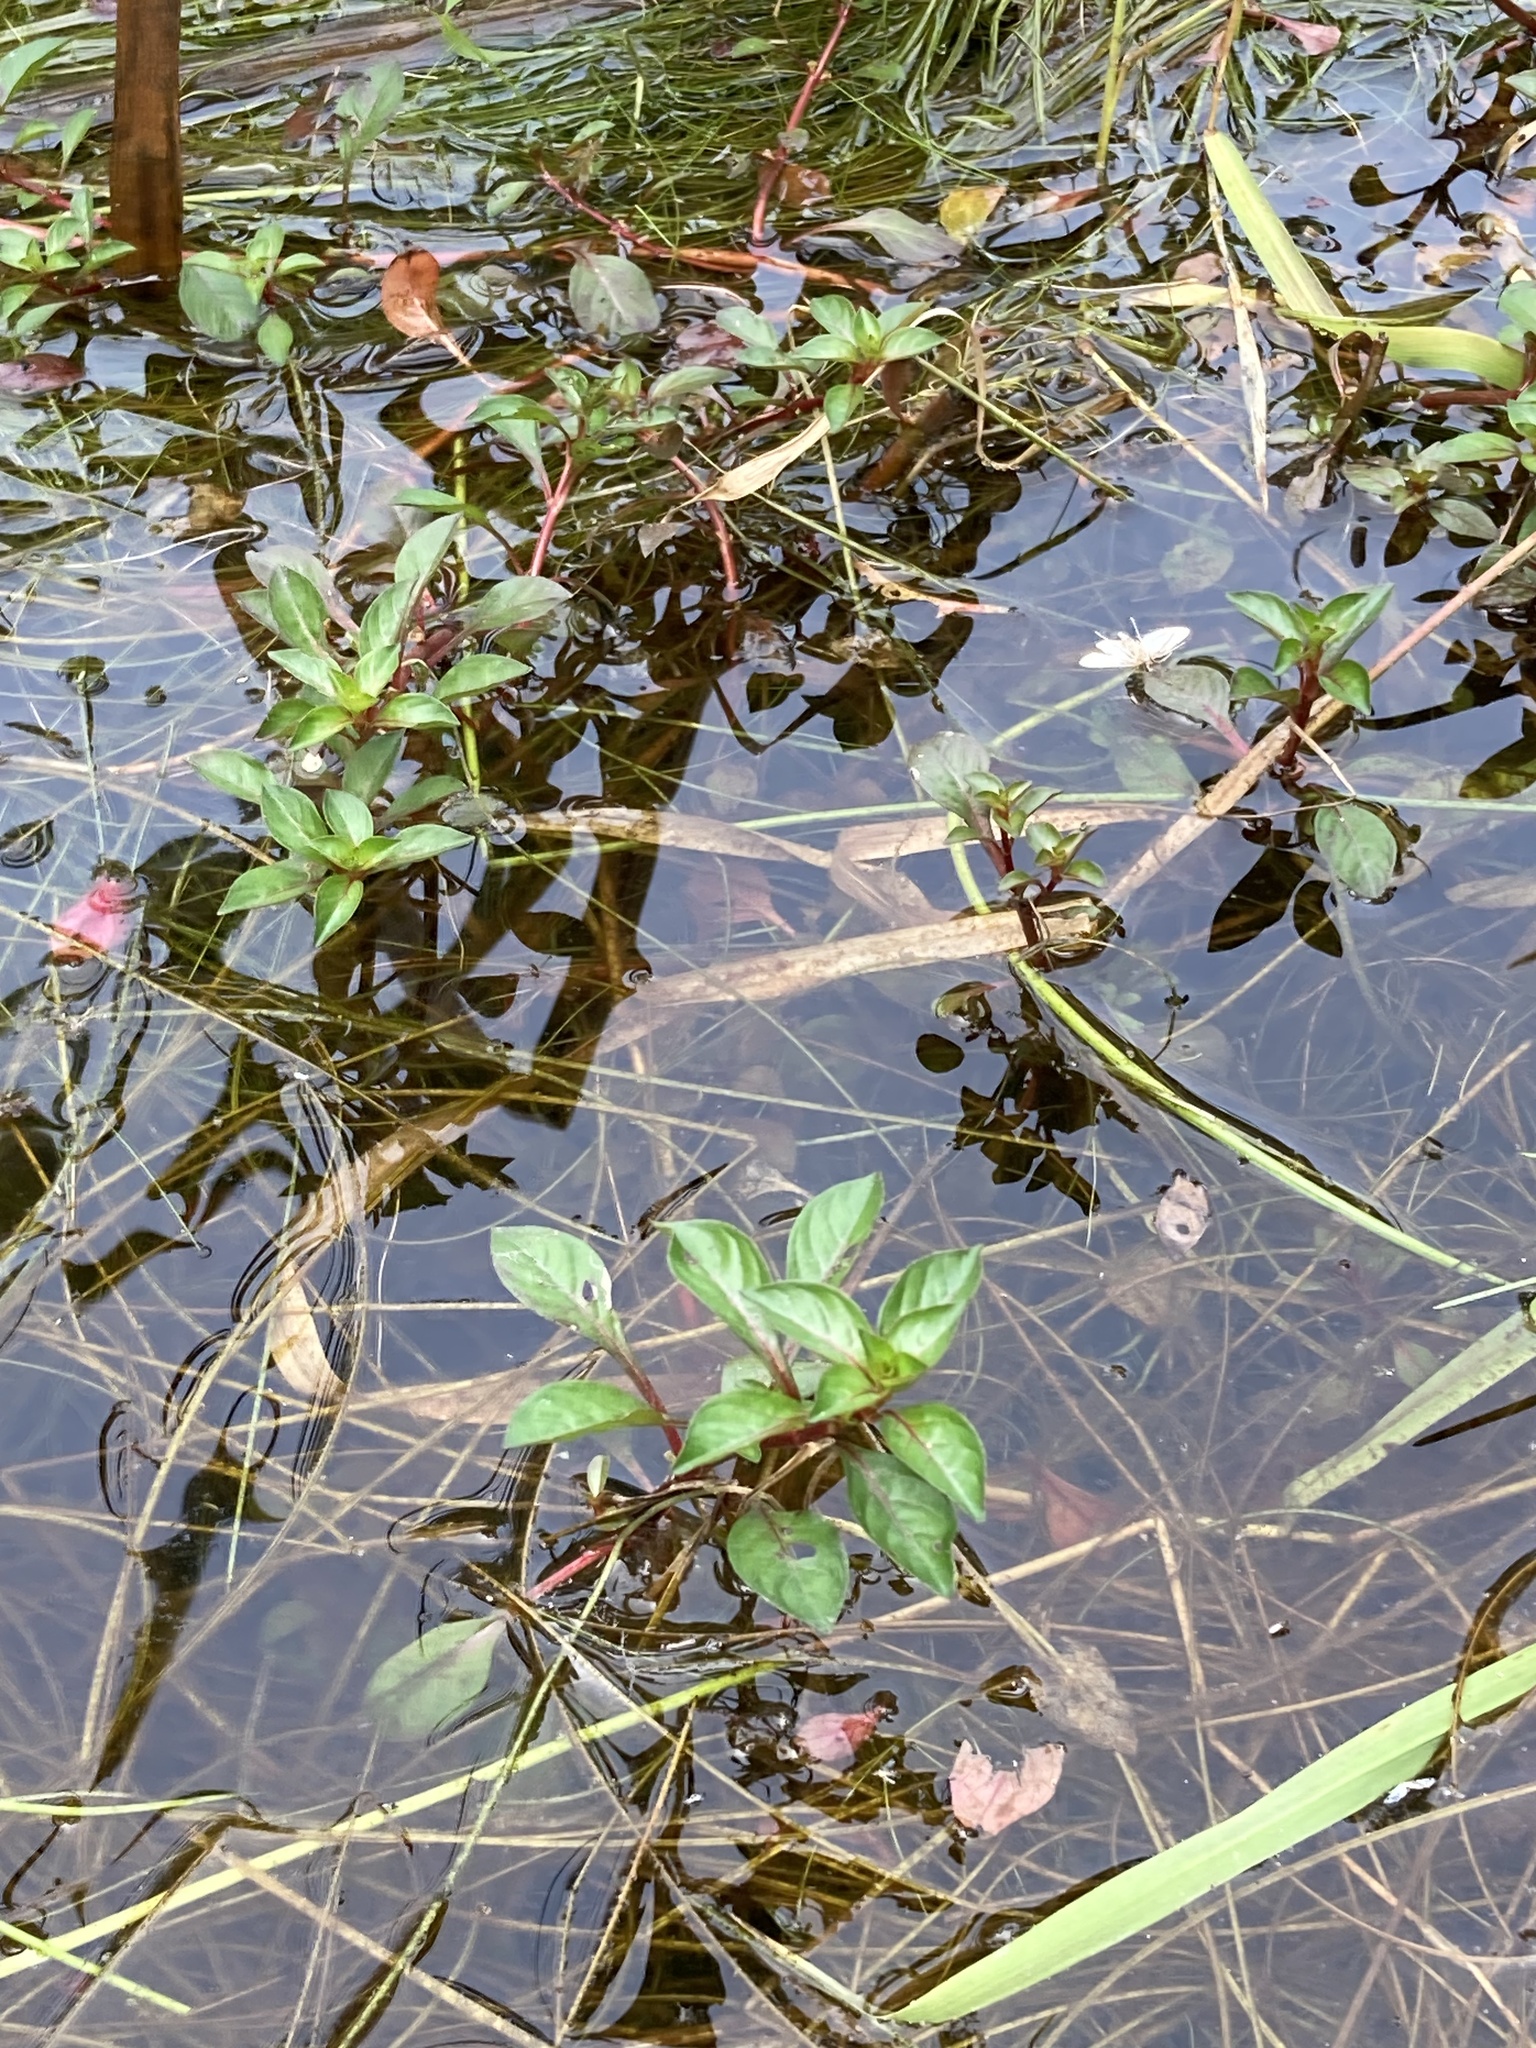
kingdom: Plantae
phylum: Tracheophyta
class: Magnoliopsida
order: Myrtales
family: Onagraceae
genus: Ludwigia
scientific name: Ludwigia palustris
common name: Hampshire-purslane
